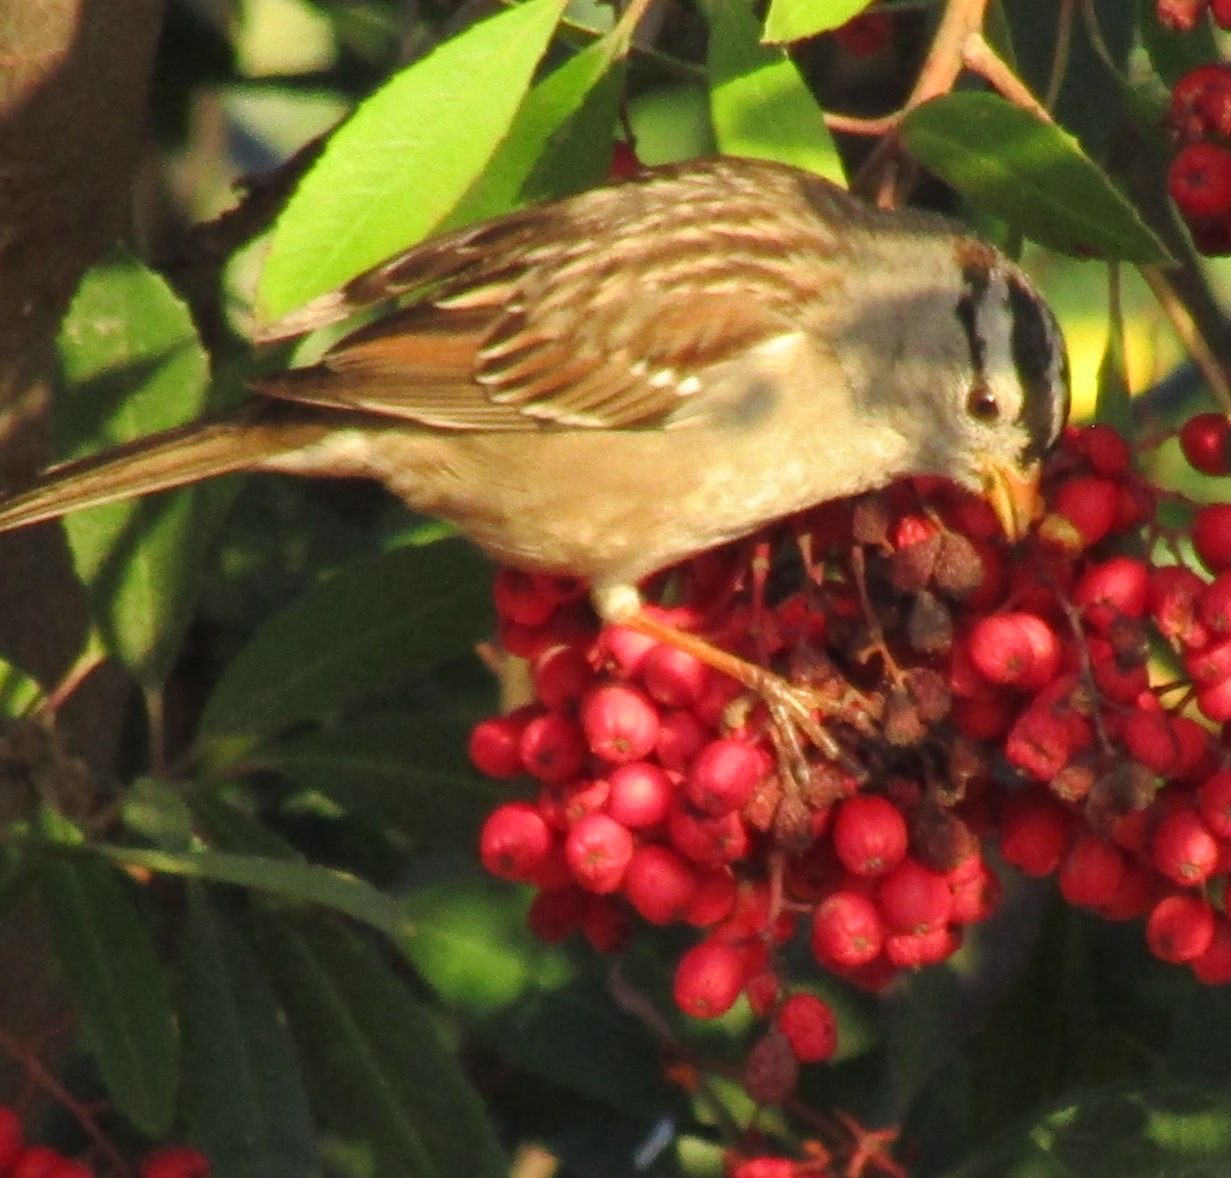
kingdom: Animalia
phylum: Chordata
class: Aves
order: Passeriformes
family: Passerellidae
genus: Zonotrichia
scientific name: Zonotrichia leucophrys
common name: White-crowned sparrow
